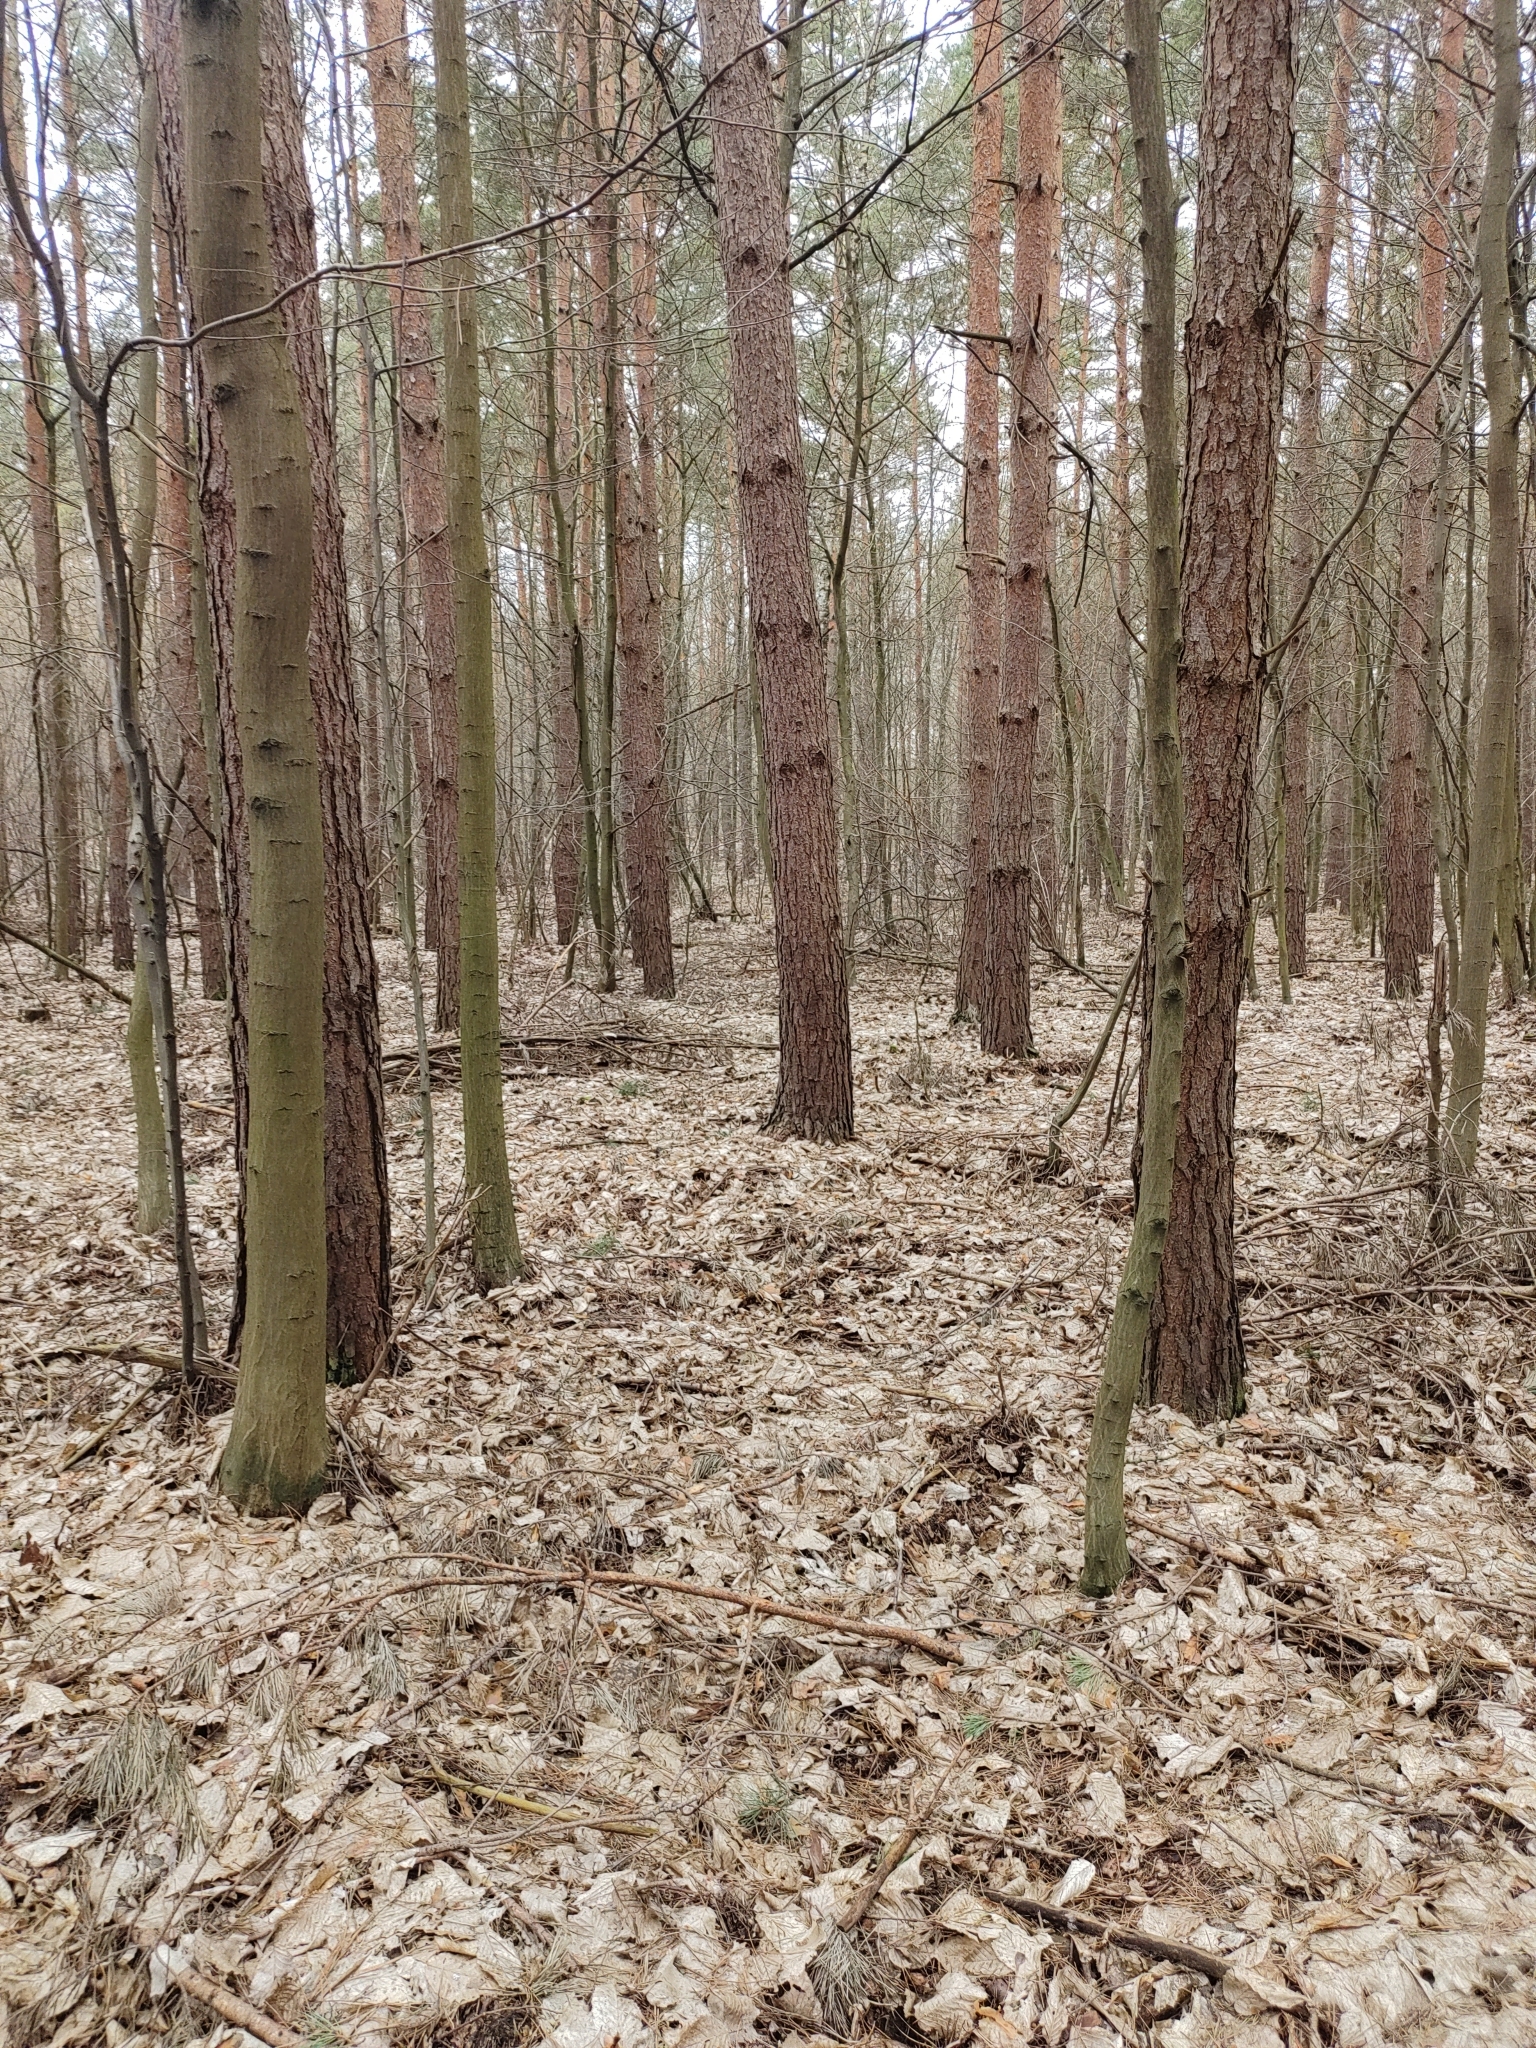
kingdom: Animalia
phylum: Chordata
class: Aves
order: Passeriformes
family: Sittidae
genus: Sitta
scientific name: Sitta europaea
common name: Eurasian nuthatch
